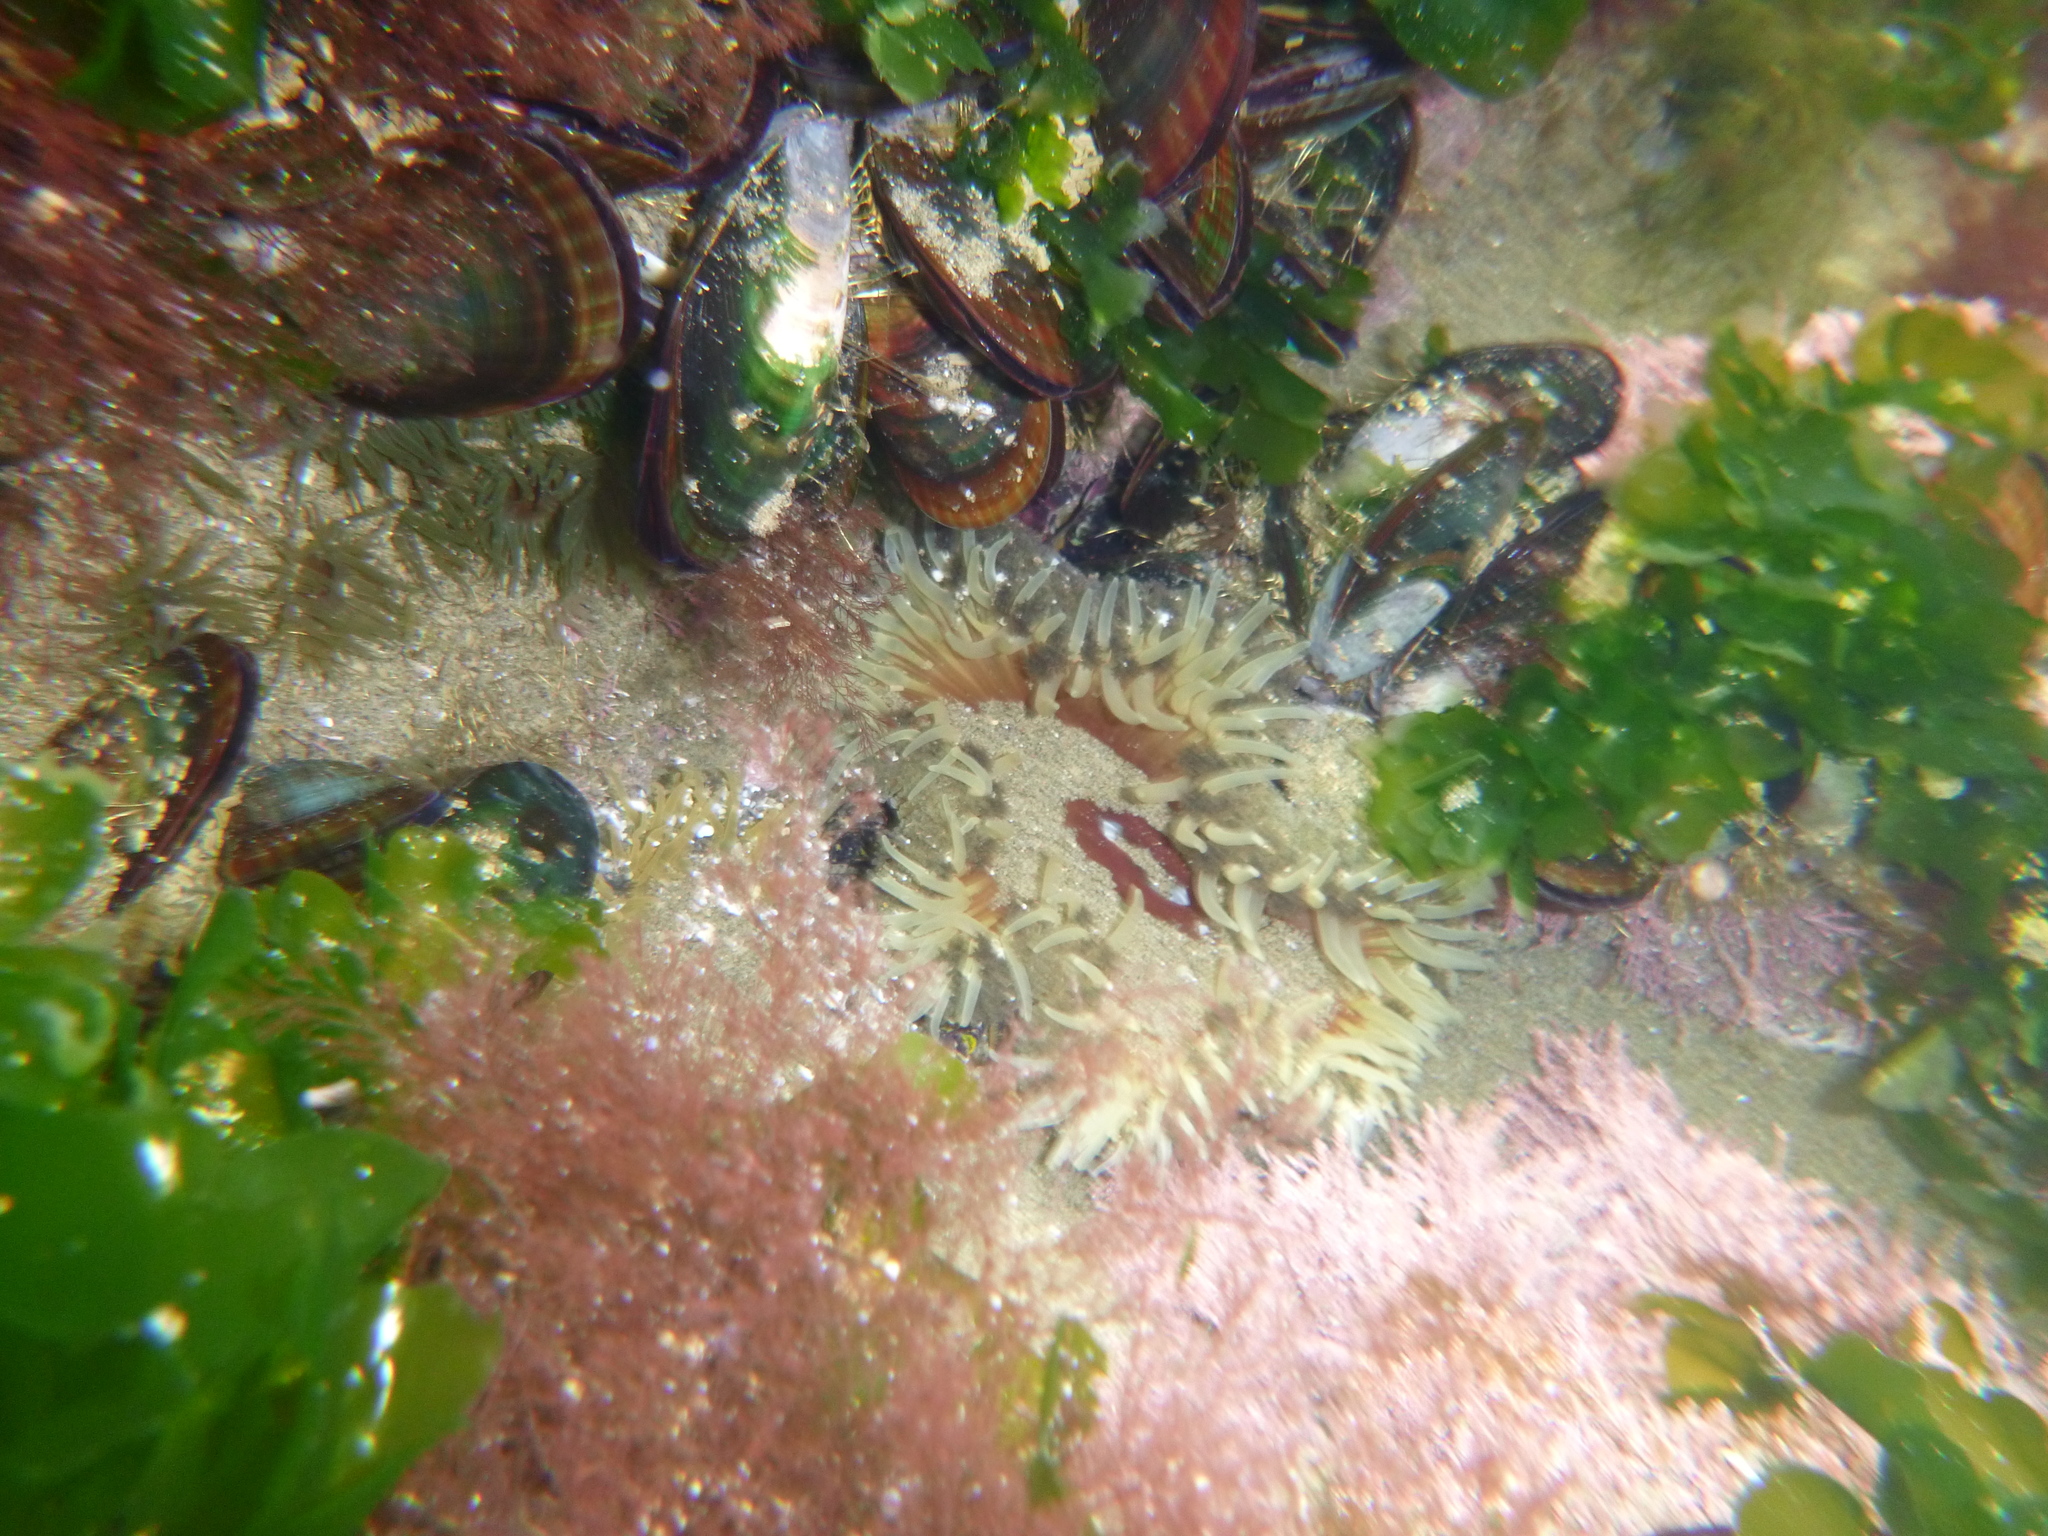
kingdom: Animalia
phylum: Cnidaria
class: Anthozoa
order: Actiniaria
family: Actiniidae
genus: Isactinia
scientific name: Isactinia olivacea
